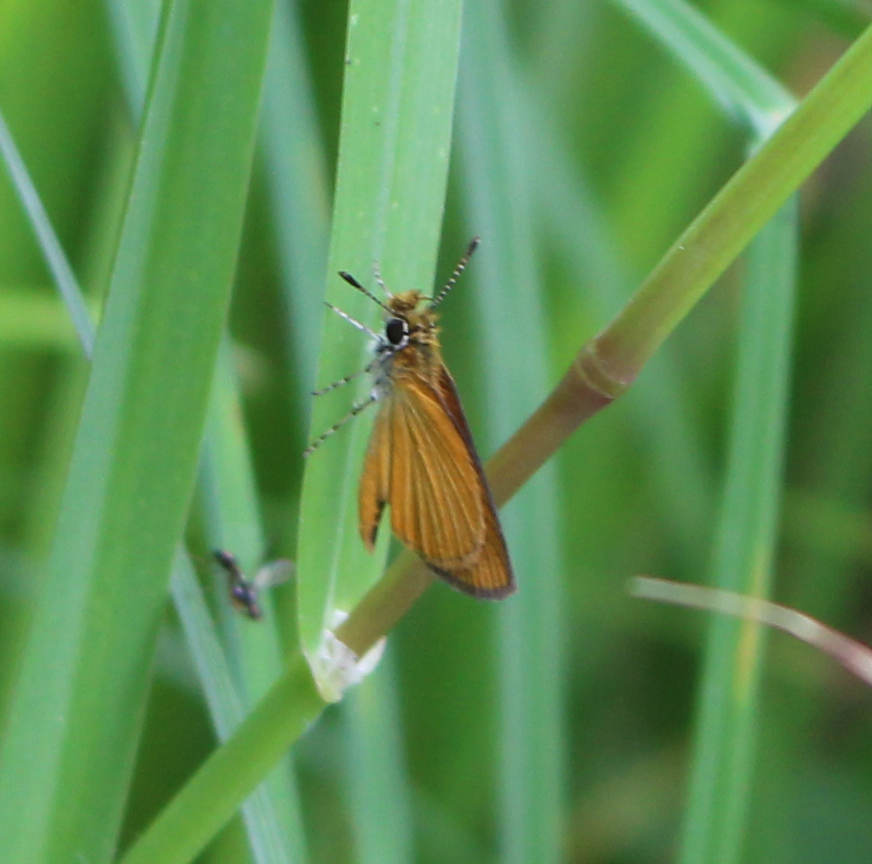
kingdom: Animalia
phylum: Arthropoda
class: Insecta
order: Lepidoptera
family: Hesperiidae
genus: Ancyloxypha
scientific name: Ancyloxypha numitor
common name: Least skipper
